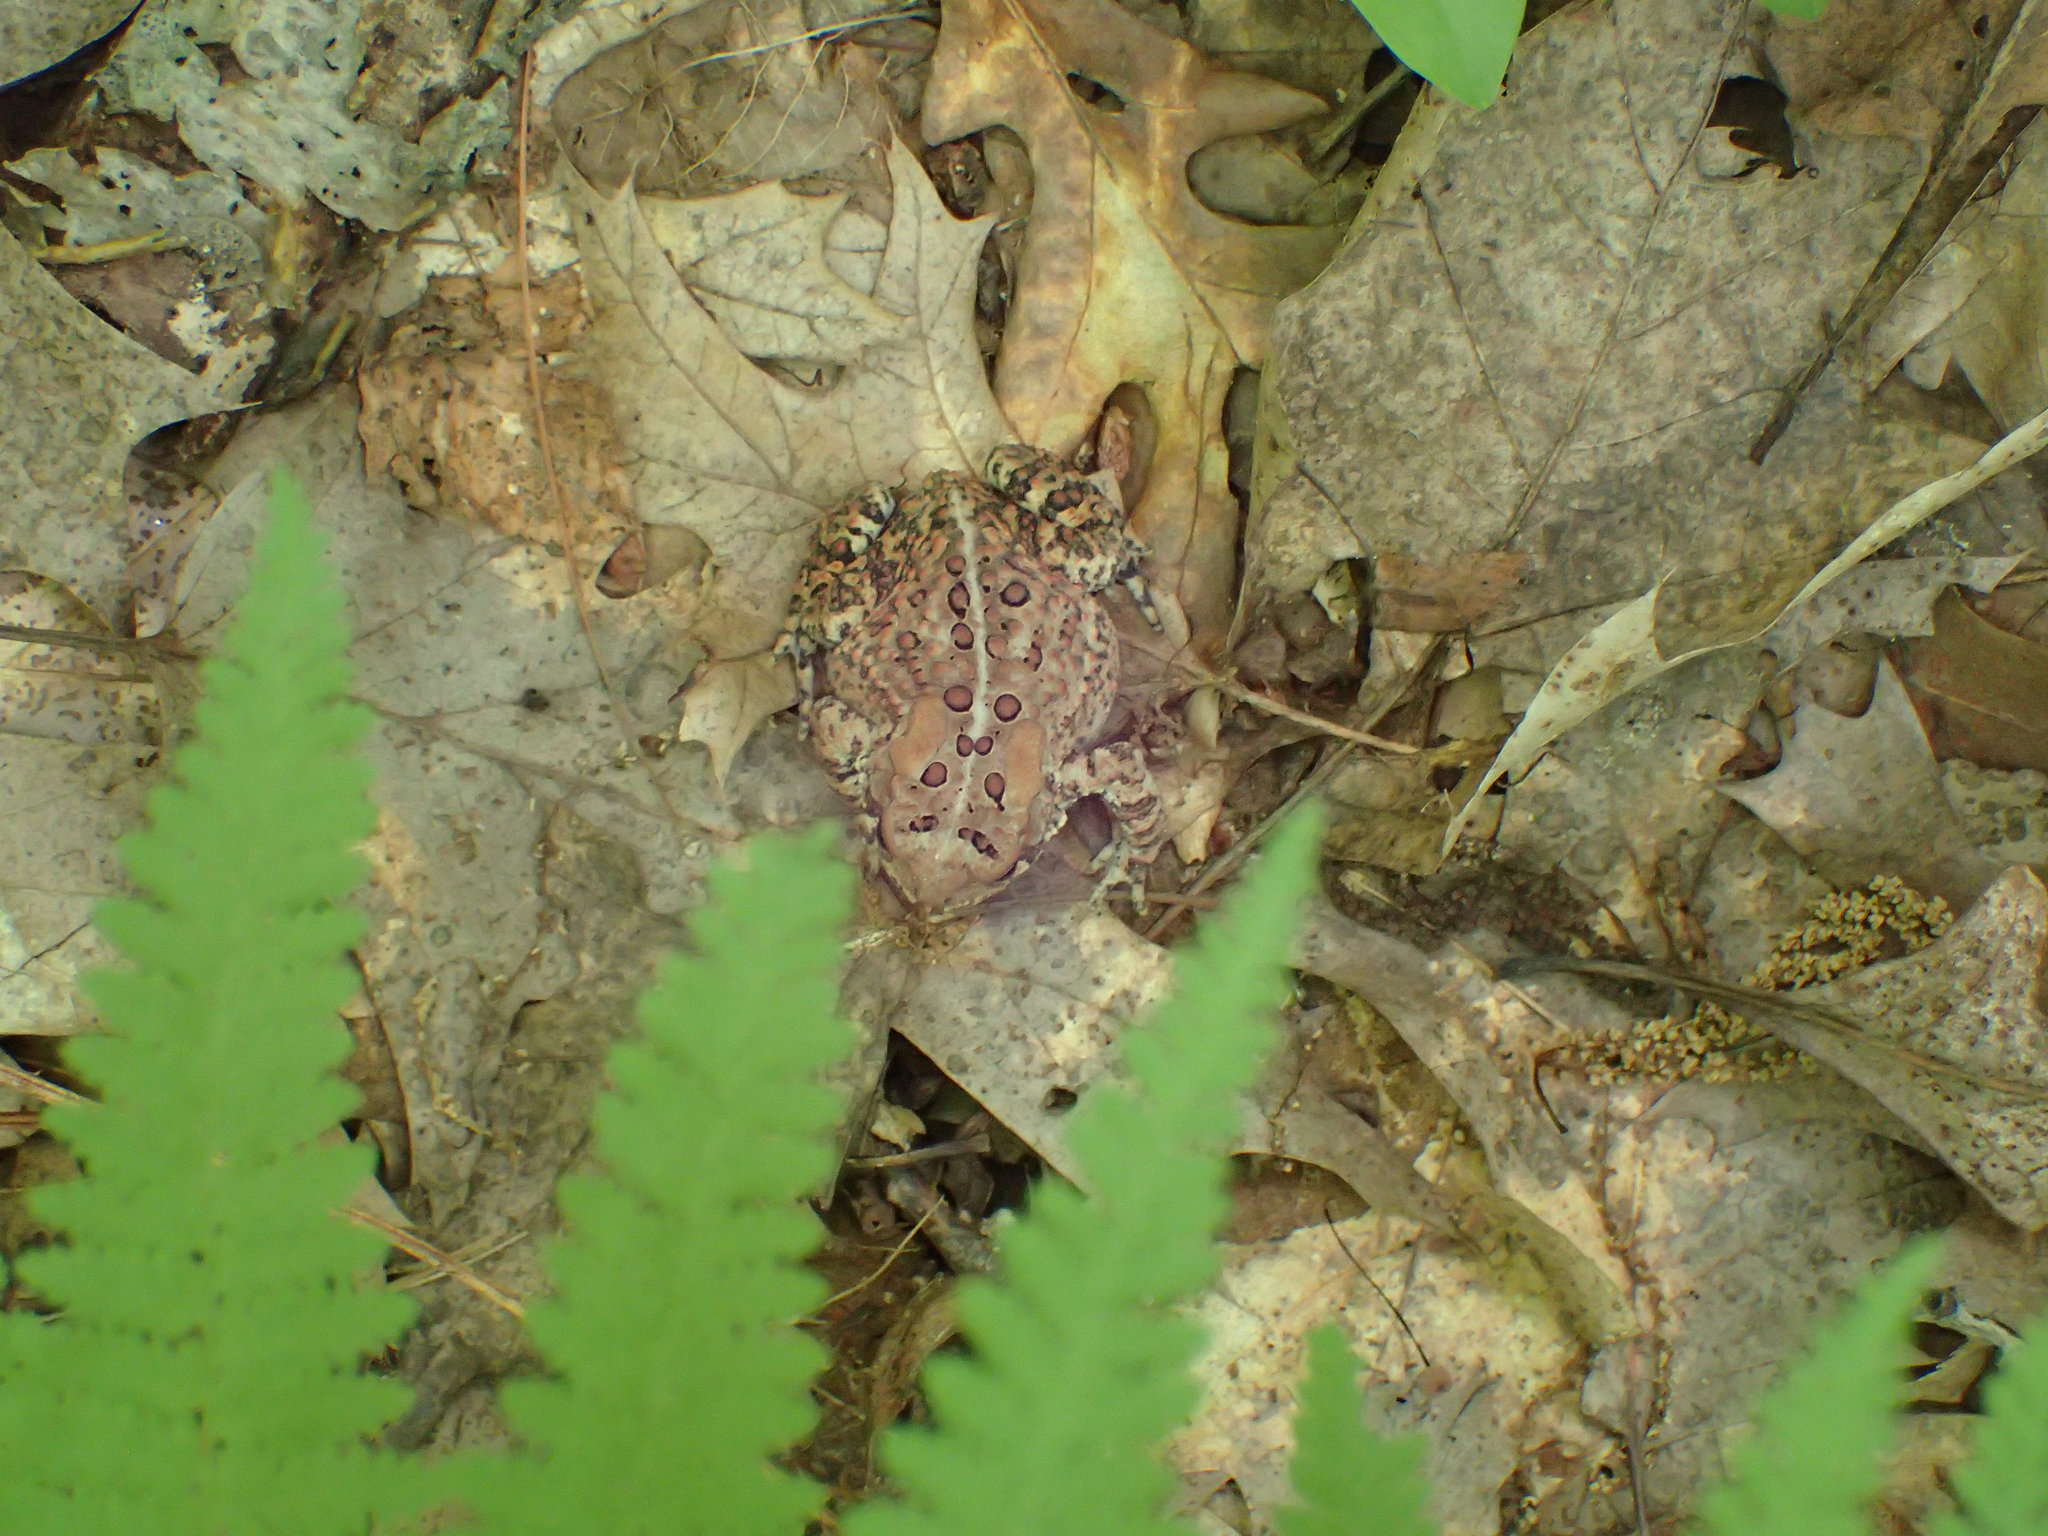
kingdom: Animalia
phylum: Chordata
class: Amphibia
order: Anura
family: Bufonidae
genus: Anaxyrus
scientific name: Anaxyrus americanus
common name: American toad
